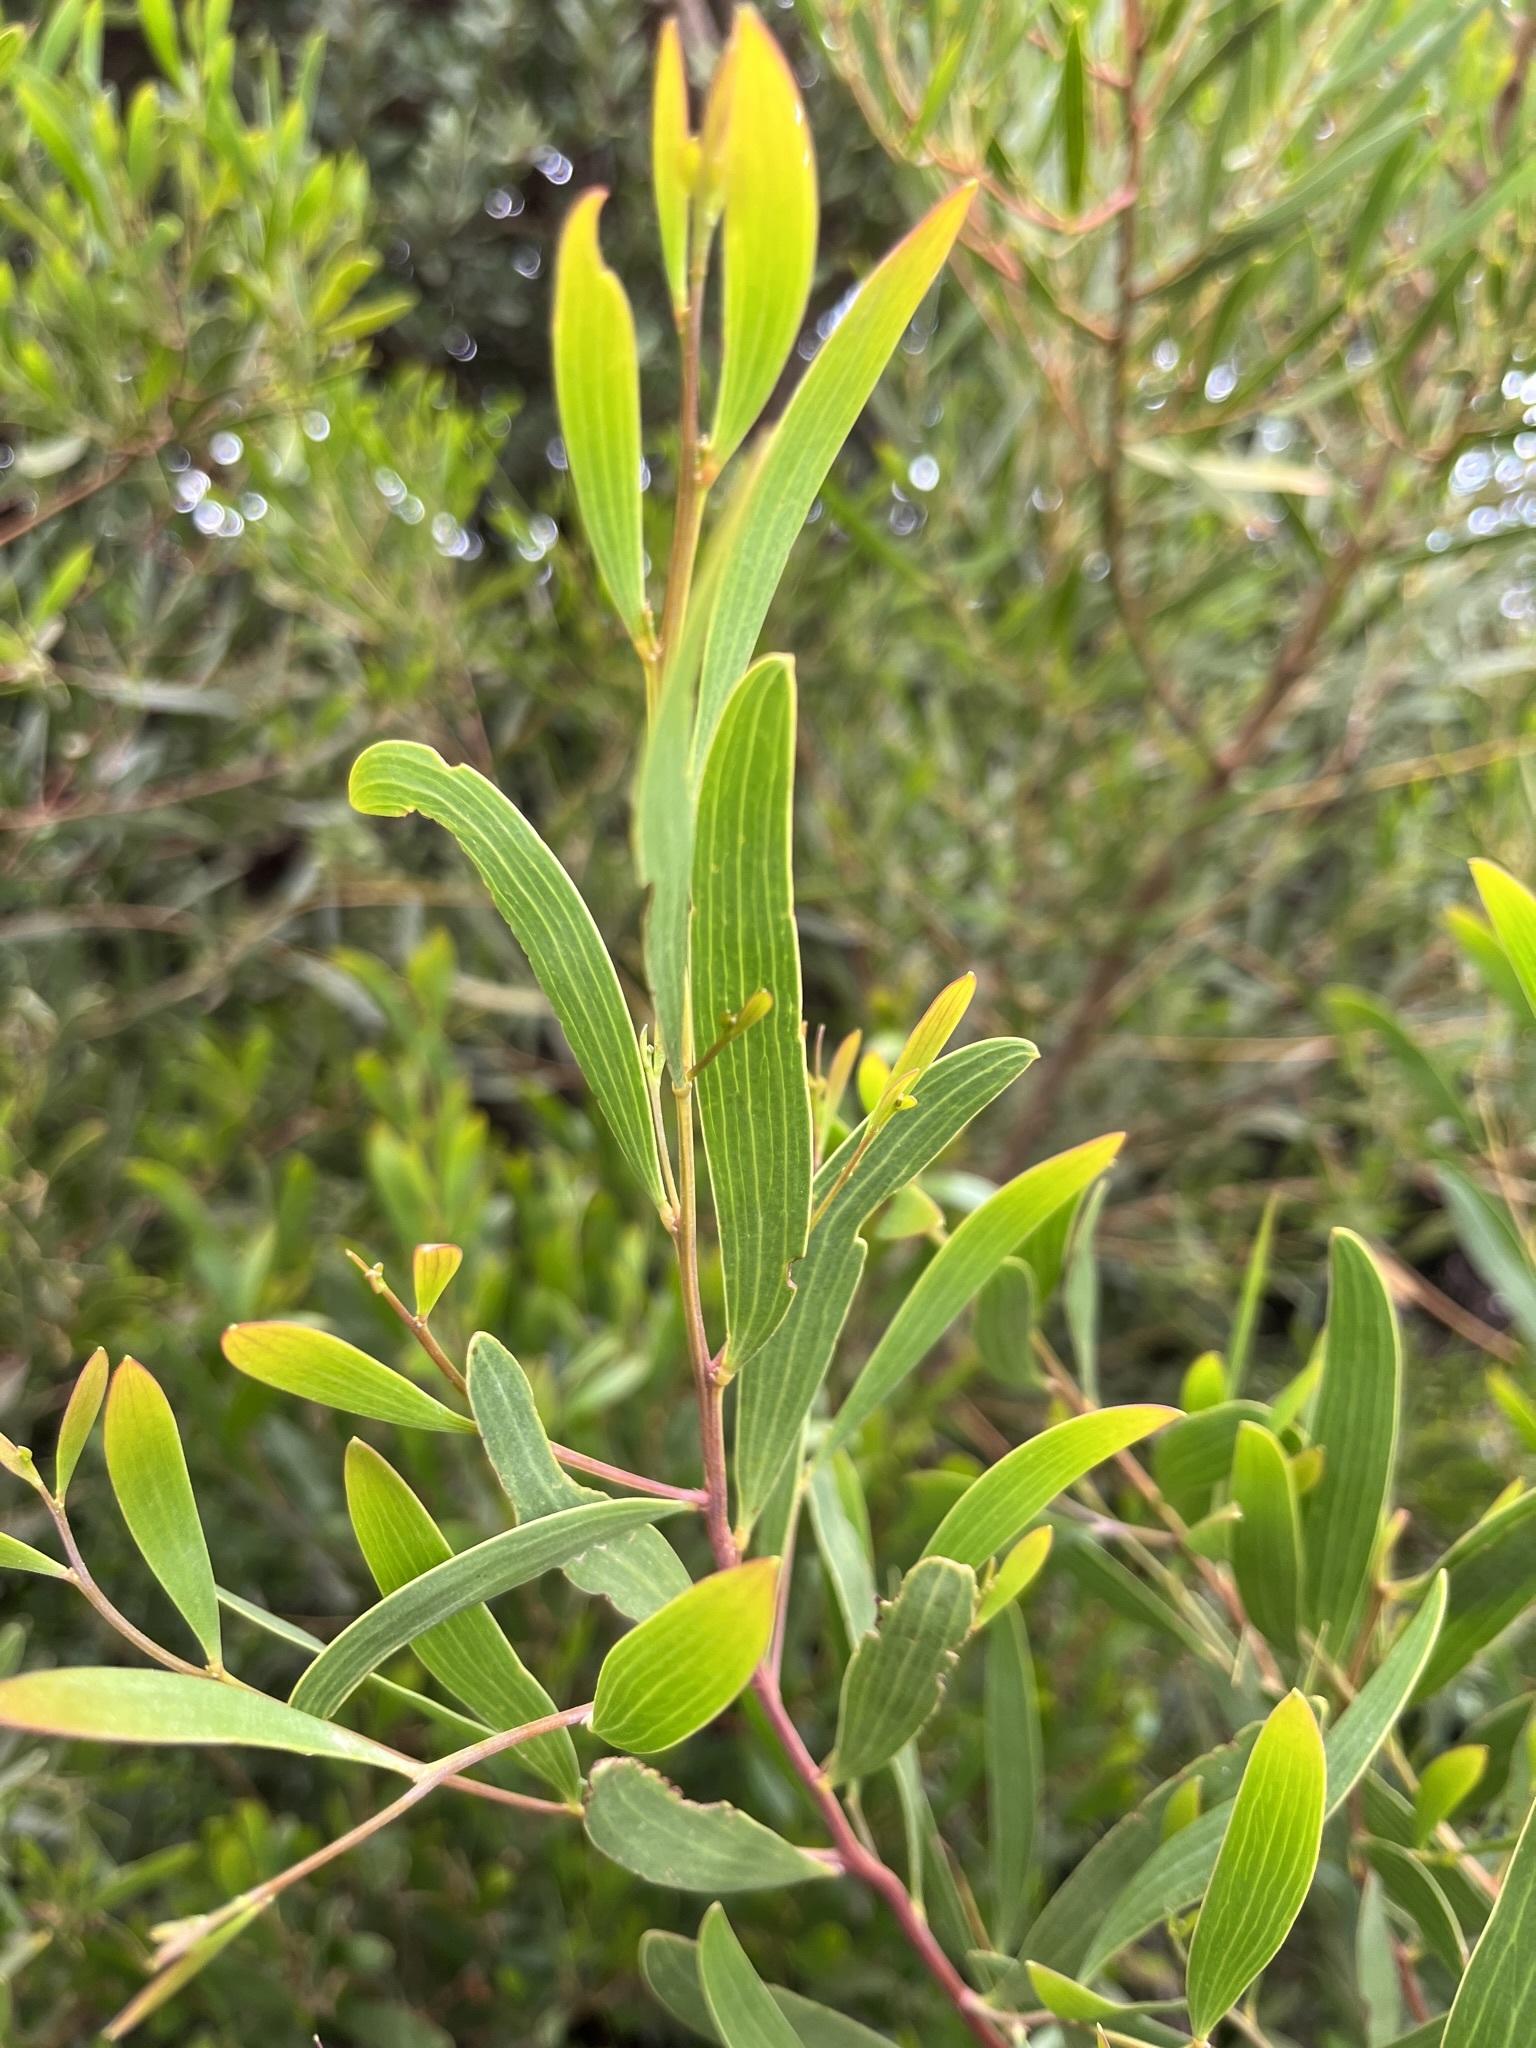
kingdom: Plantae
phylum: Tracheophyta
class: Magnoliopsida
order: Fabales
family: Fabaceae
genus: Acacia
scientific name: Acacia cyclops
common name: Coastal wattle
